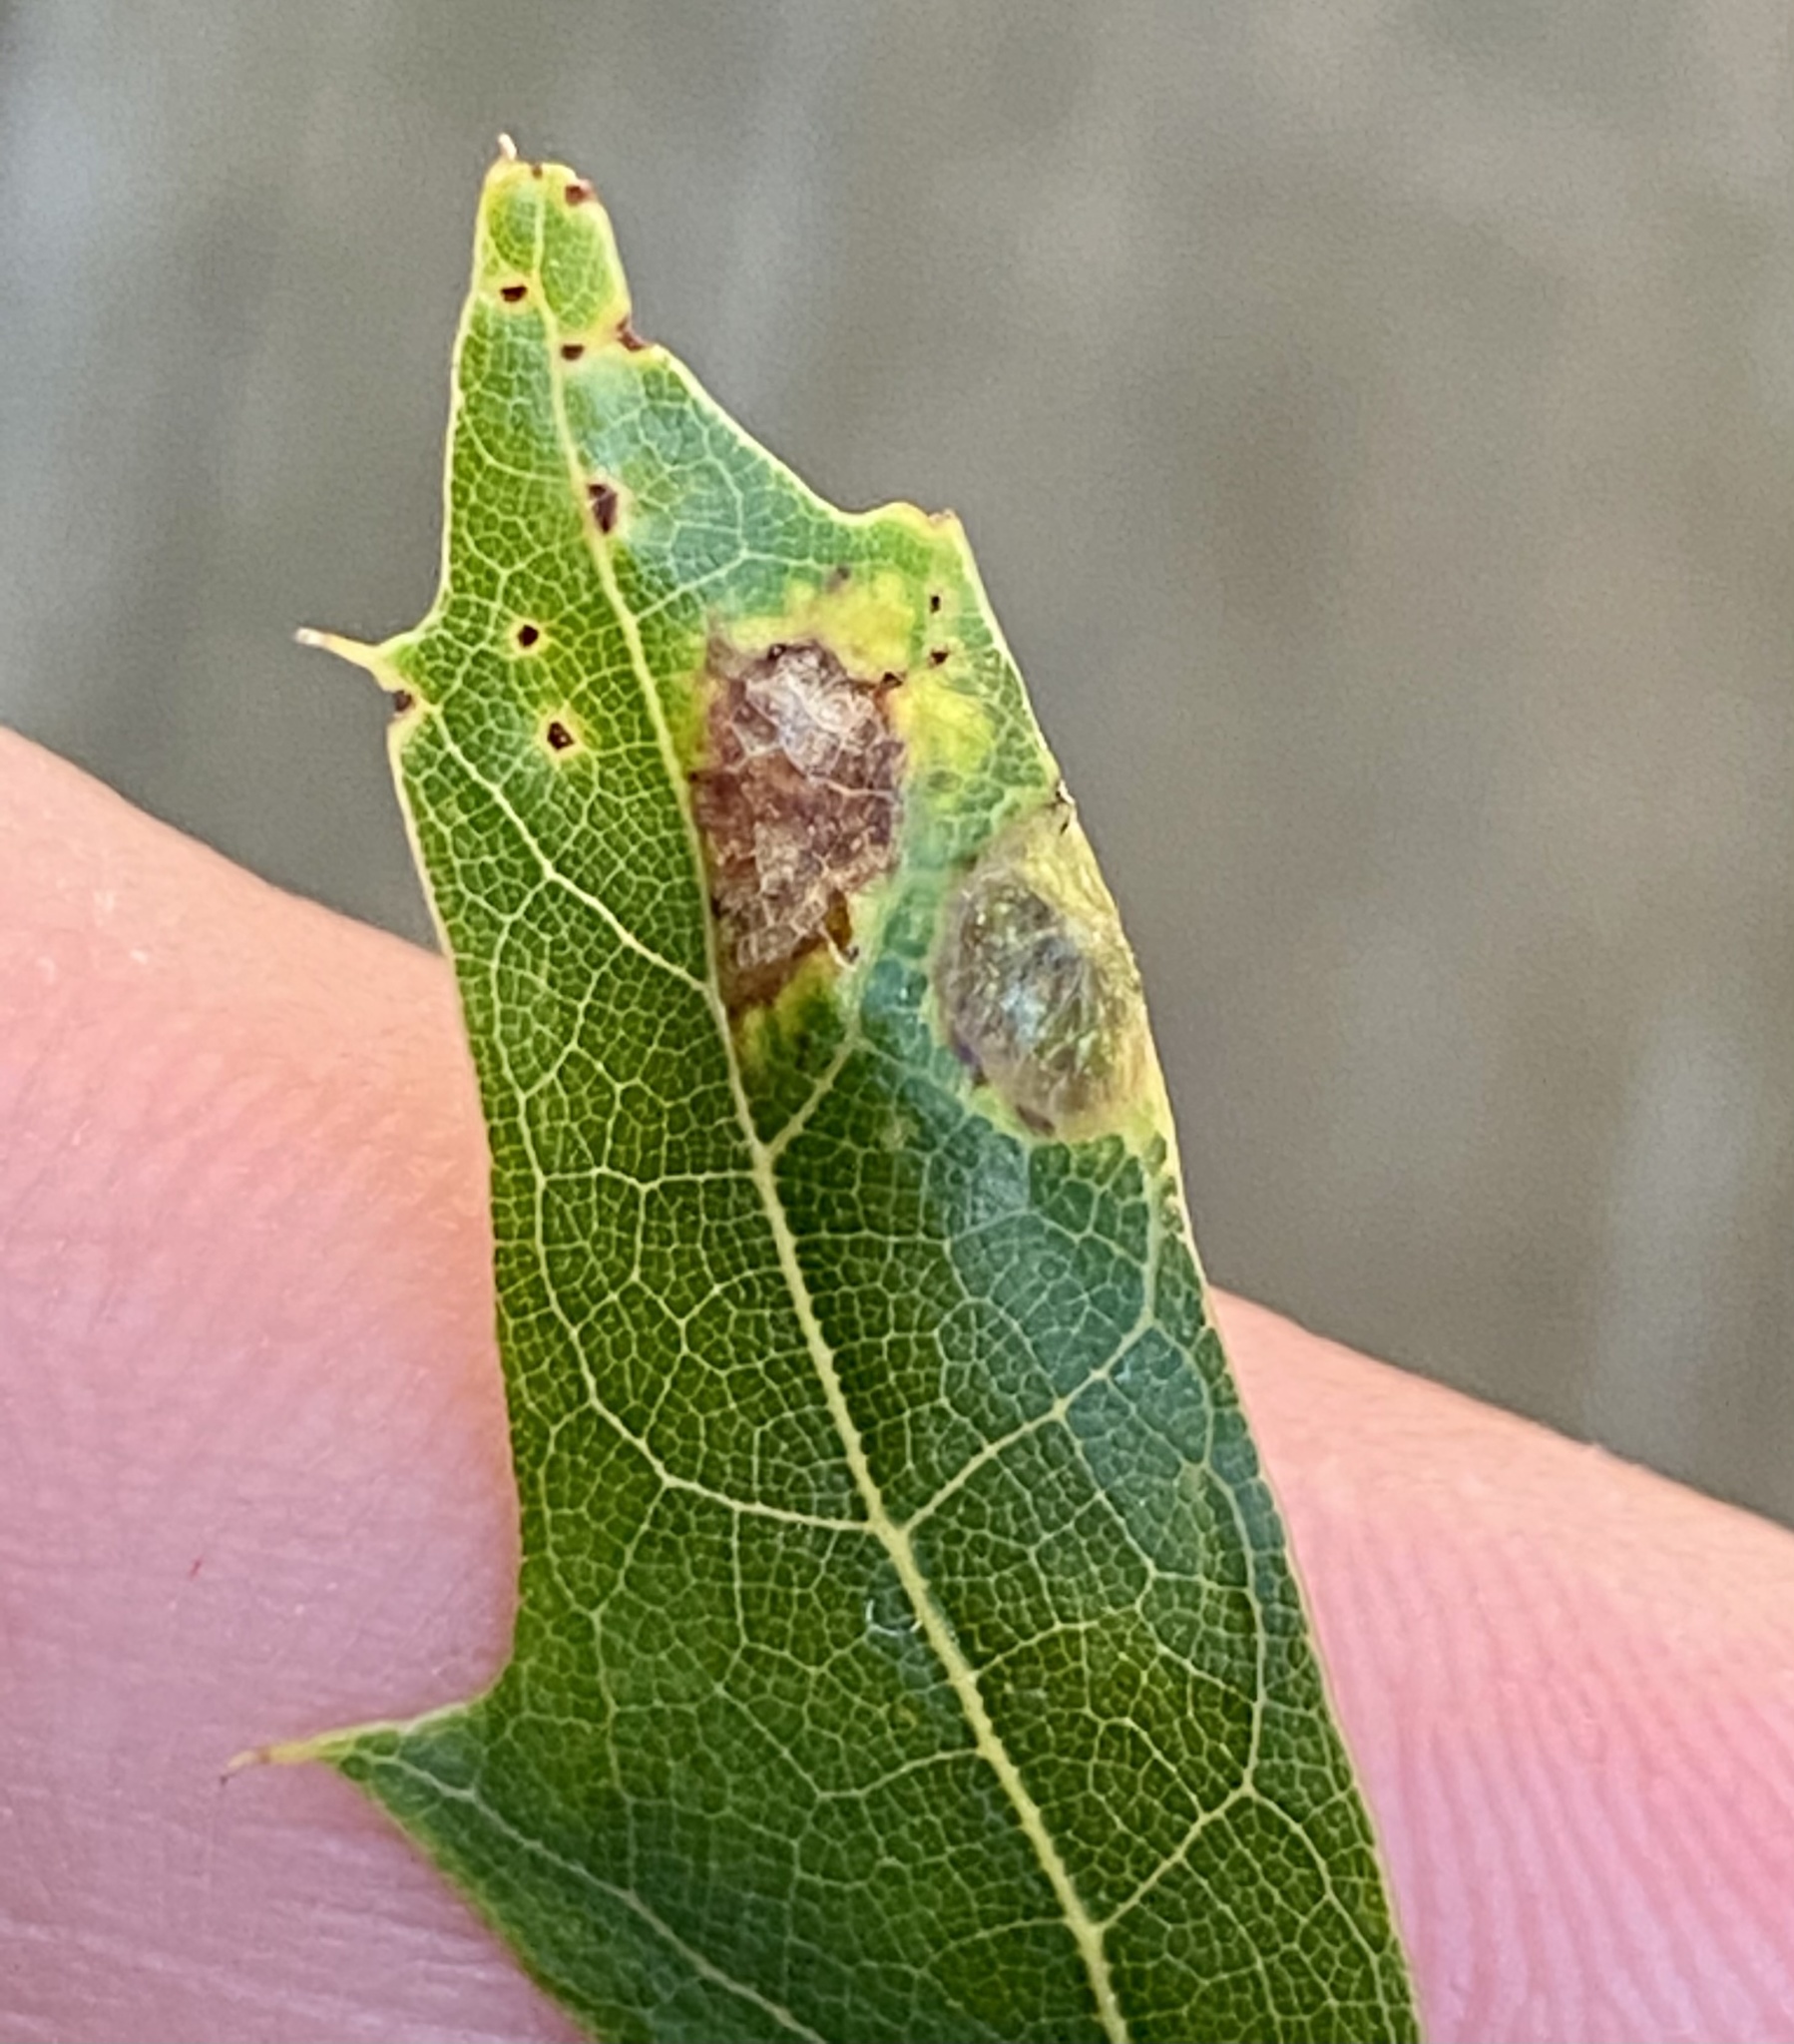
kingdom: Animalia
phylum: Arthropoda
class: Insecta
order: Hymenoptera
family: Cynipidae
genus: Amphibolips
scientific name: Amphibolips
